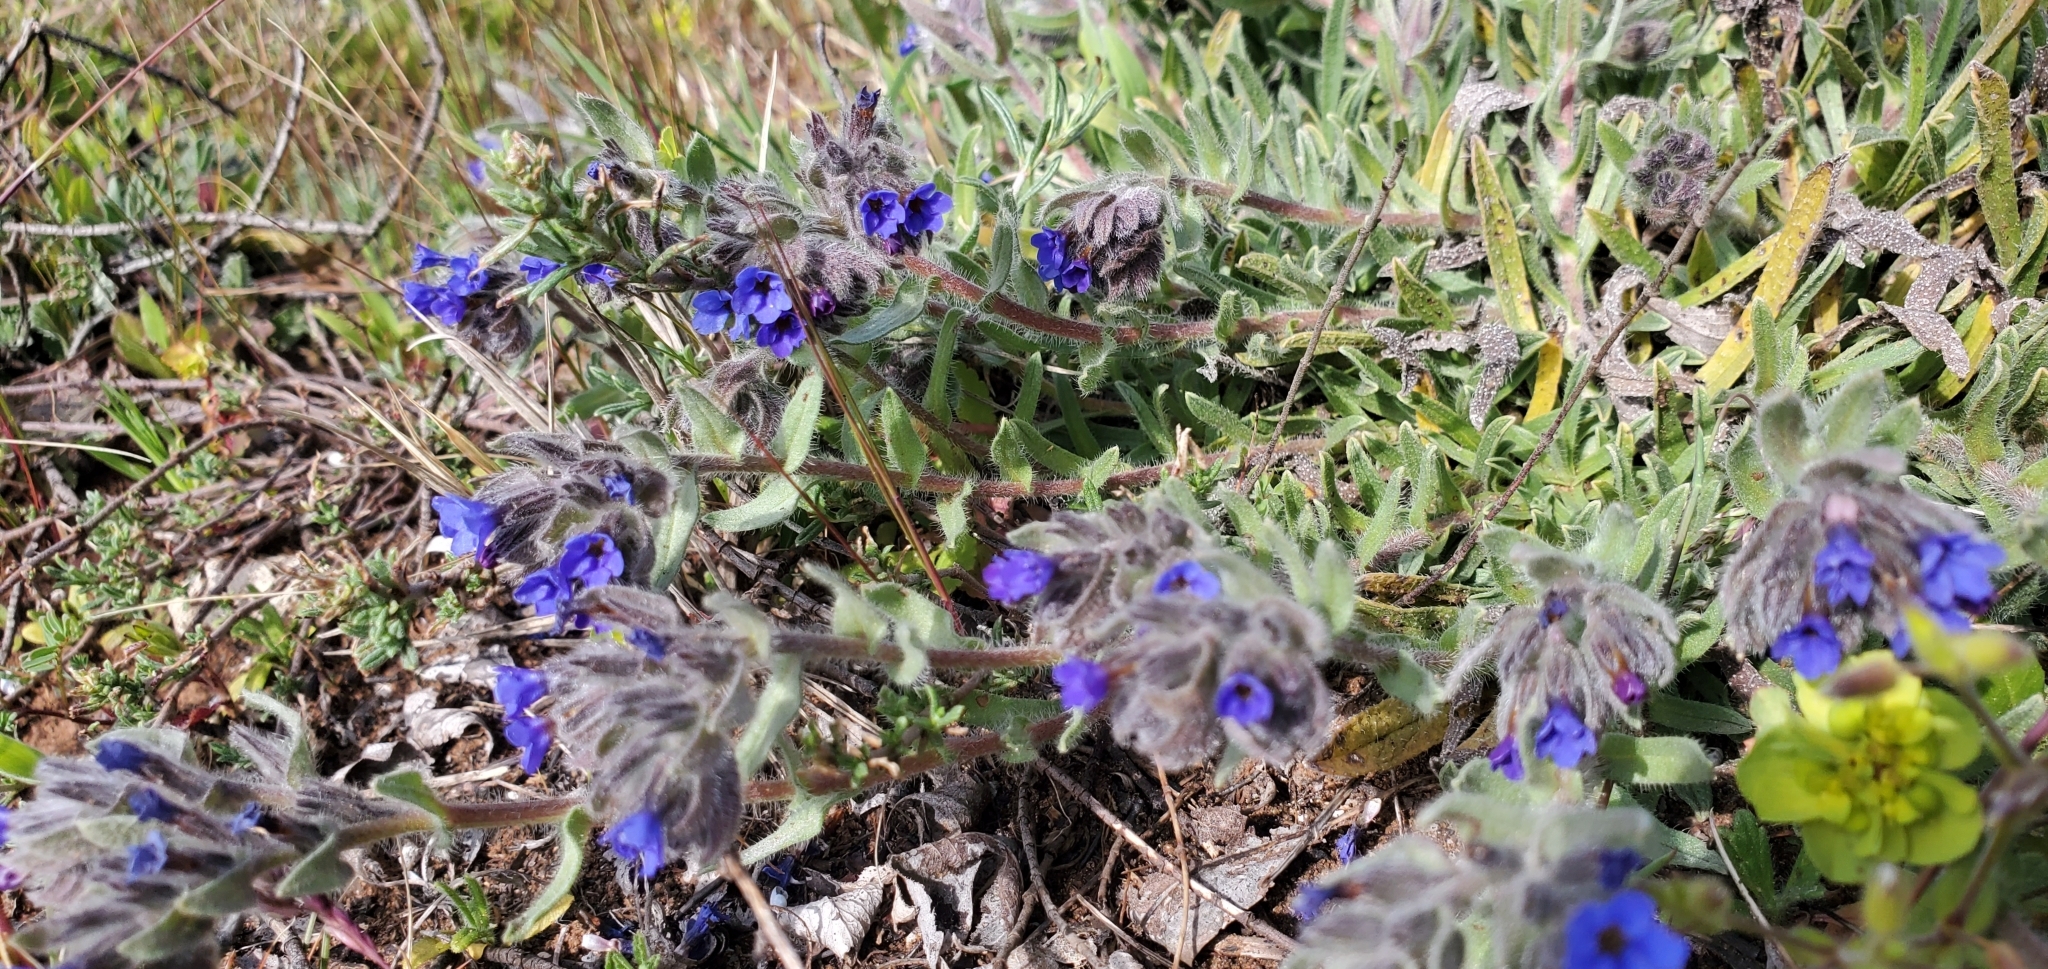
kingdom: Plantae
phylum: Tracheophyta
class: Magnoliopsida
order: Boraginales
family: Boraginaceae
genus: Alkanna
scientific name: Alkanna tinctoria
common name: Dyer's-alkanet
